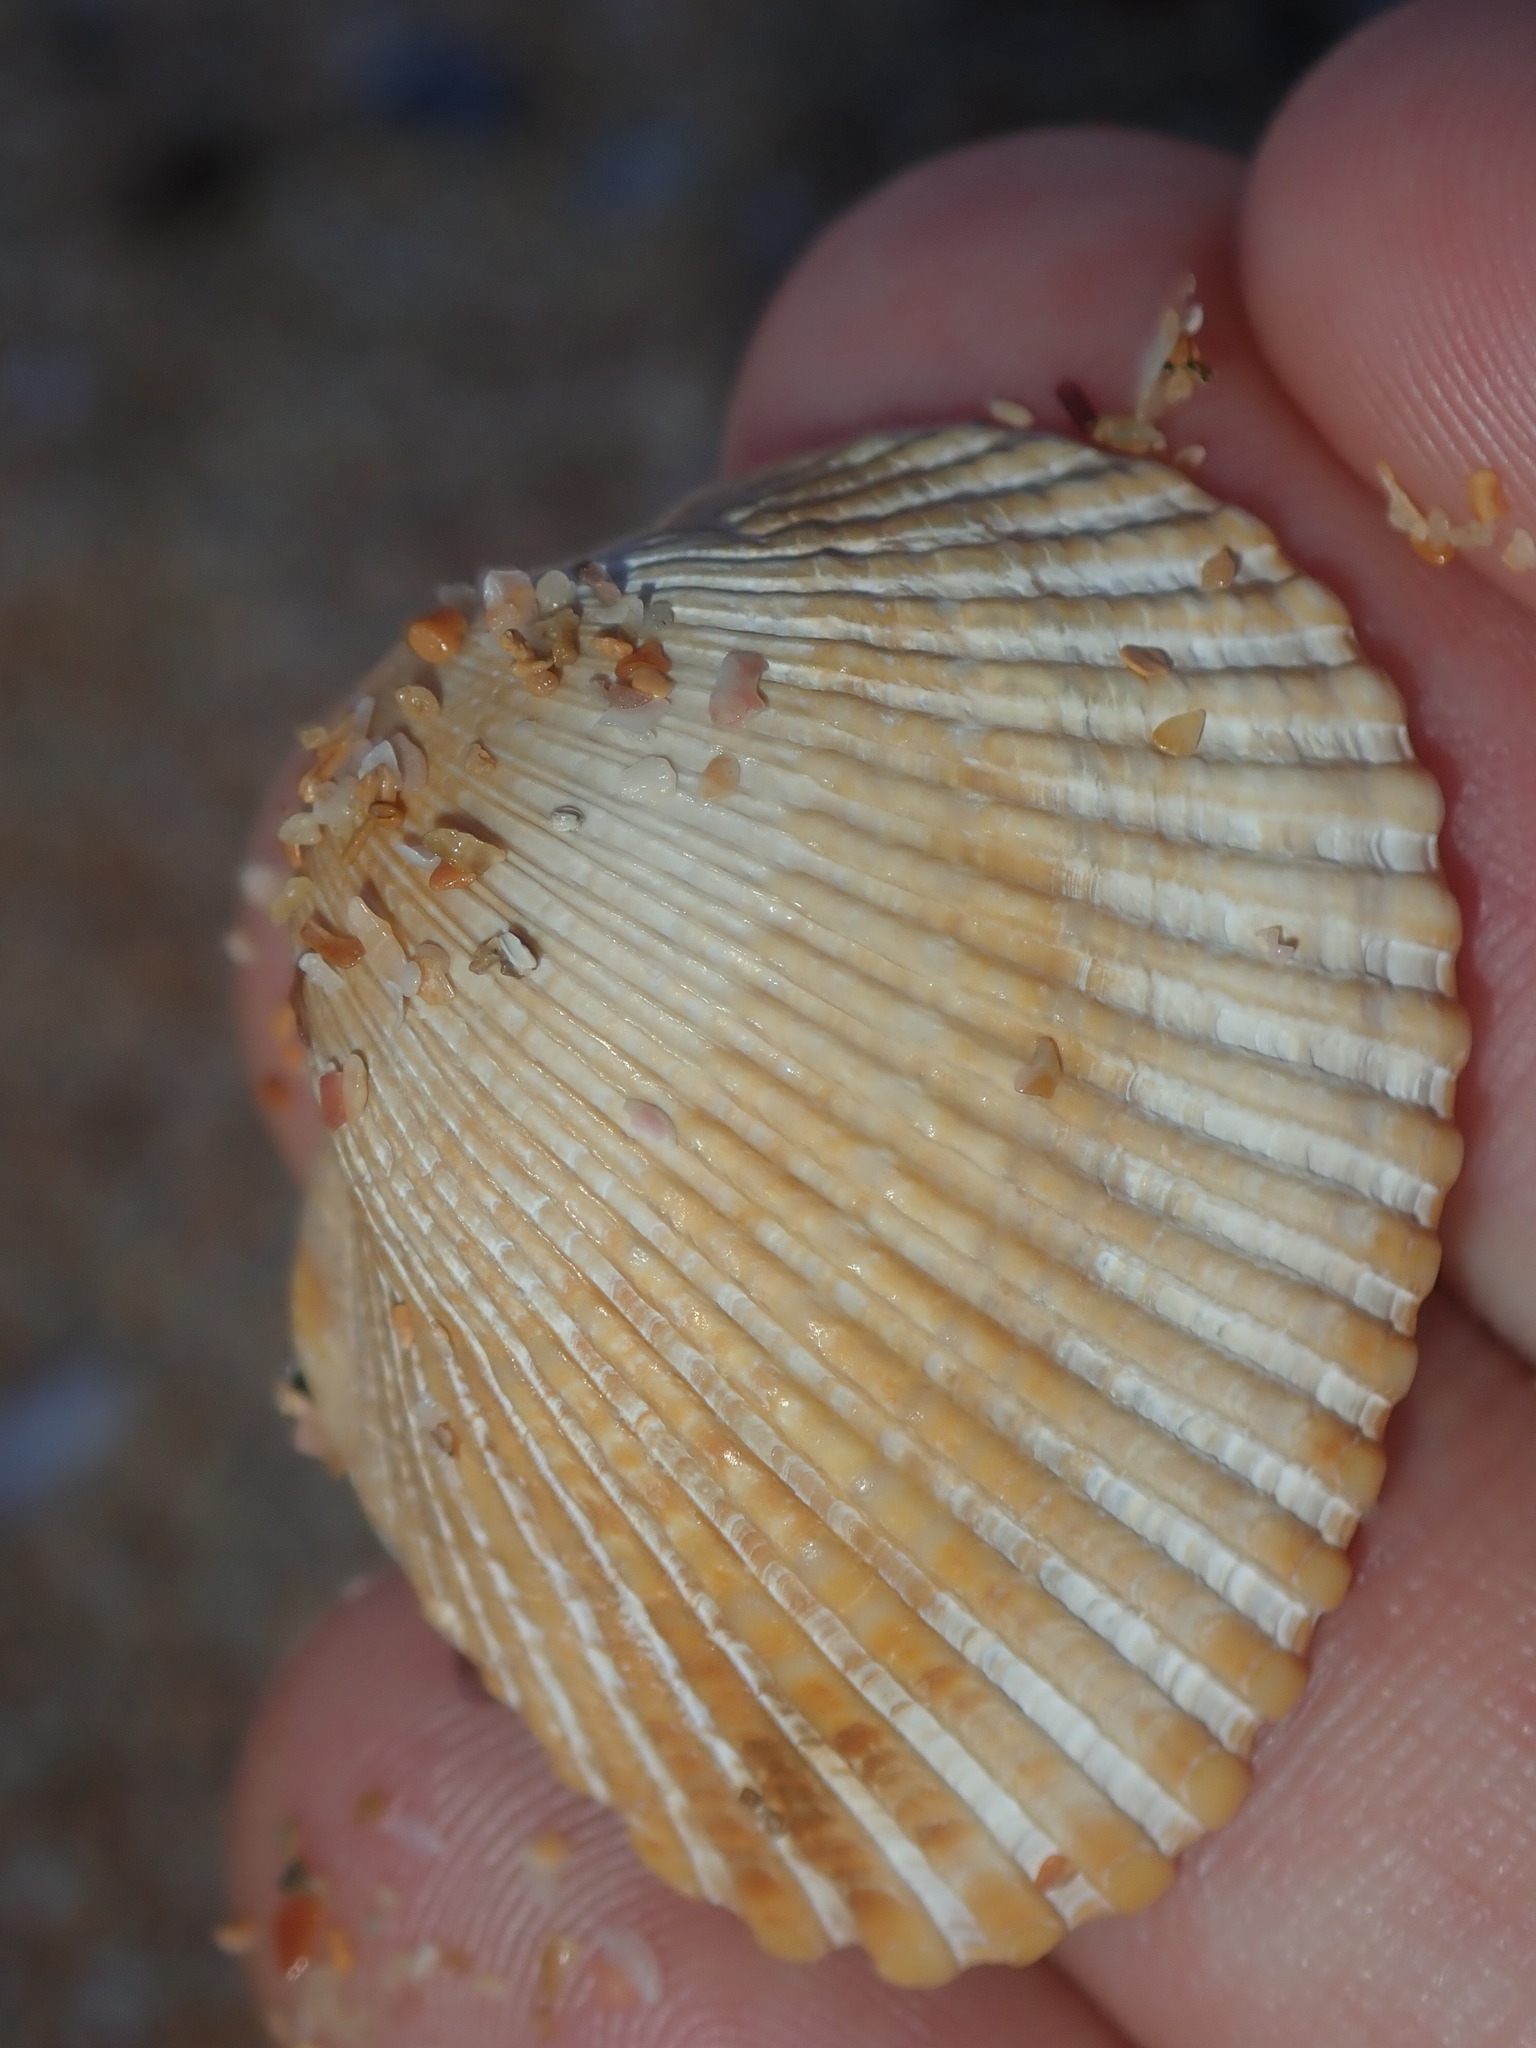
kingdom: Animalia
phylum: Mollusca
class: Bivalvia
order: Arcida
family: Arcidae
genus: Anadara
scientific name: Anadara trapezia
